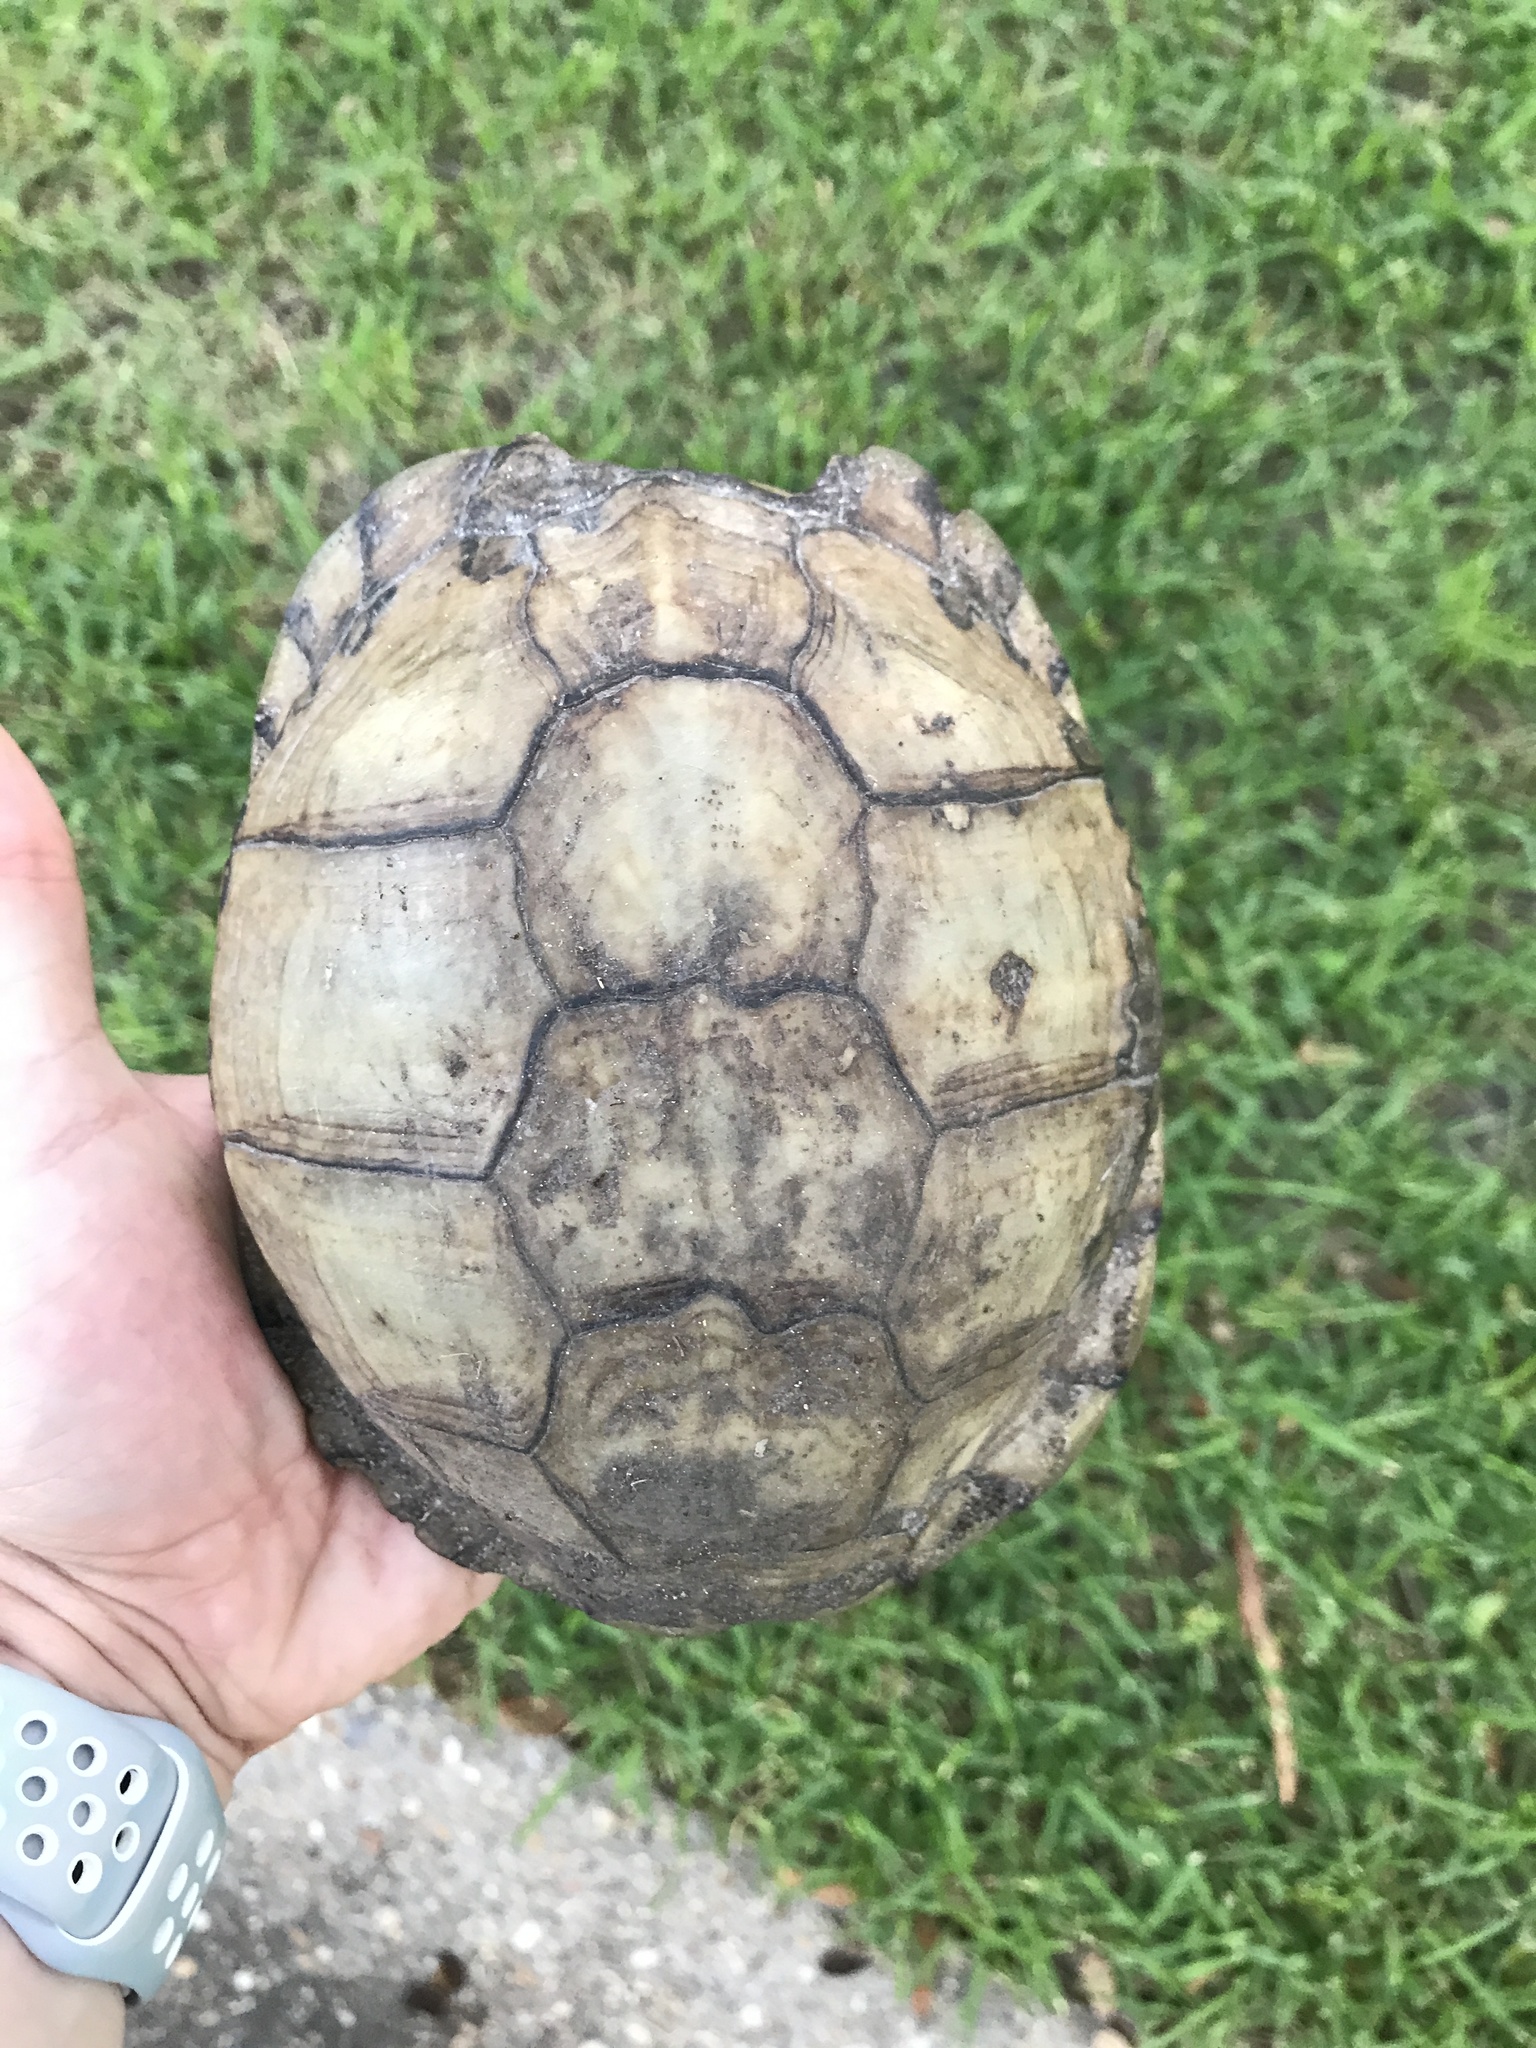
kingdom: Animalia
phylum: Chordata
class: Testudines
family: Emydidae
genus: Terrapene
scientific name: Terrapene carolina
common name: Common box turtle
